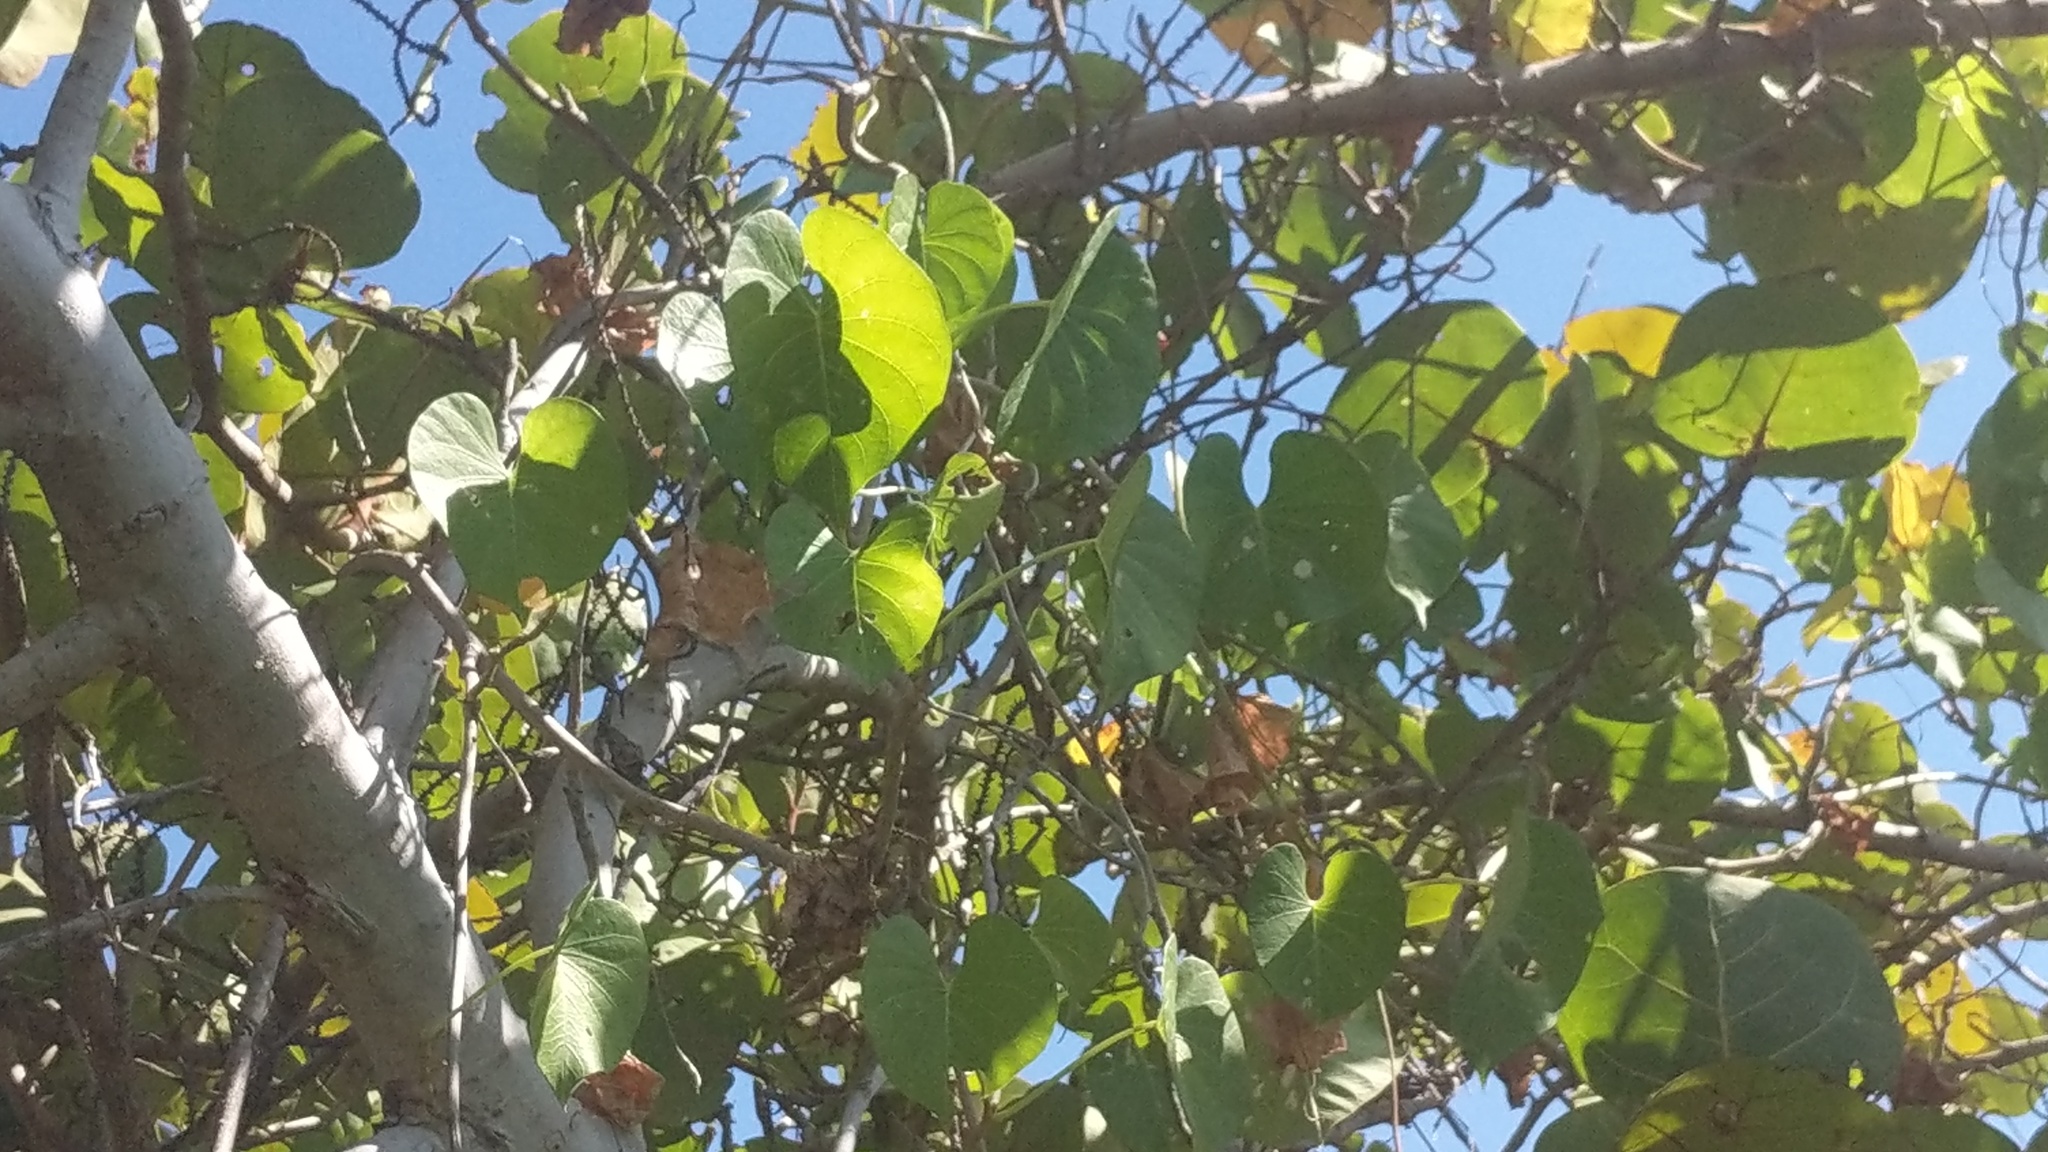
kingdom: Plantae
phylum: Tracheophyta
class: Magnoliopsida
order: Solanales
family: Convolvulaceae
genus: Ipomoea
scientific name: Ipomoea violacea
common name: Beach moonflower
